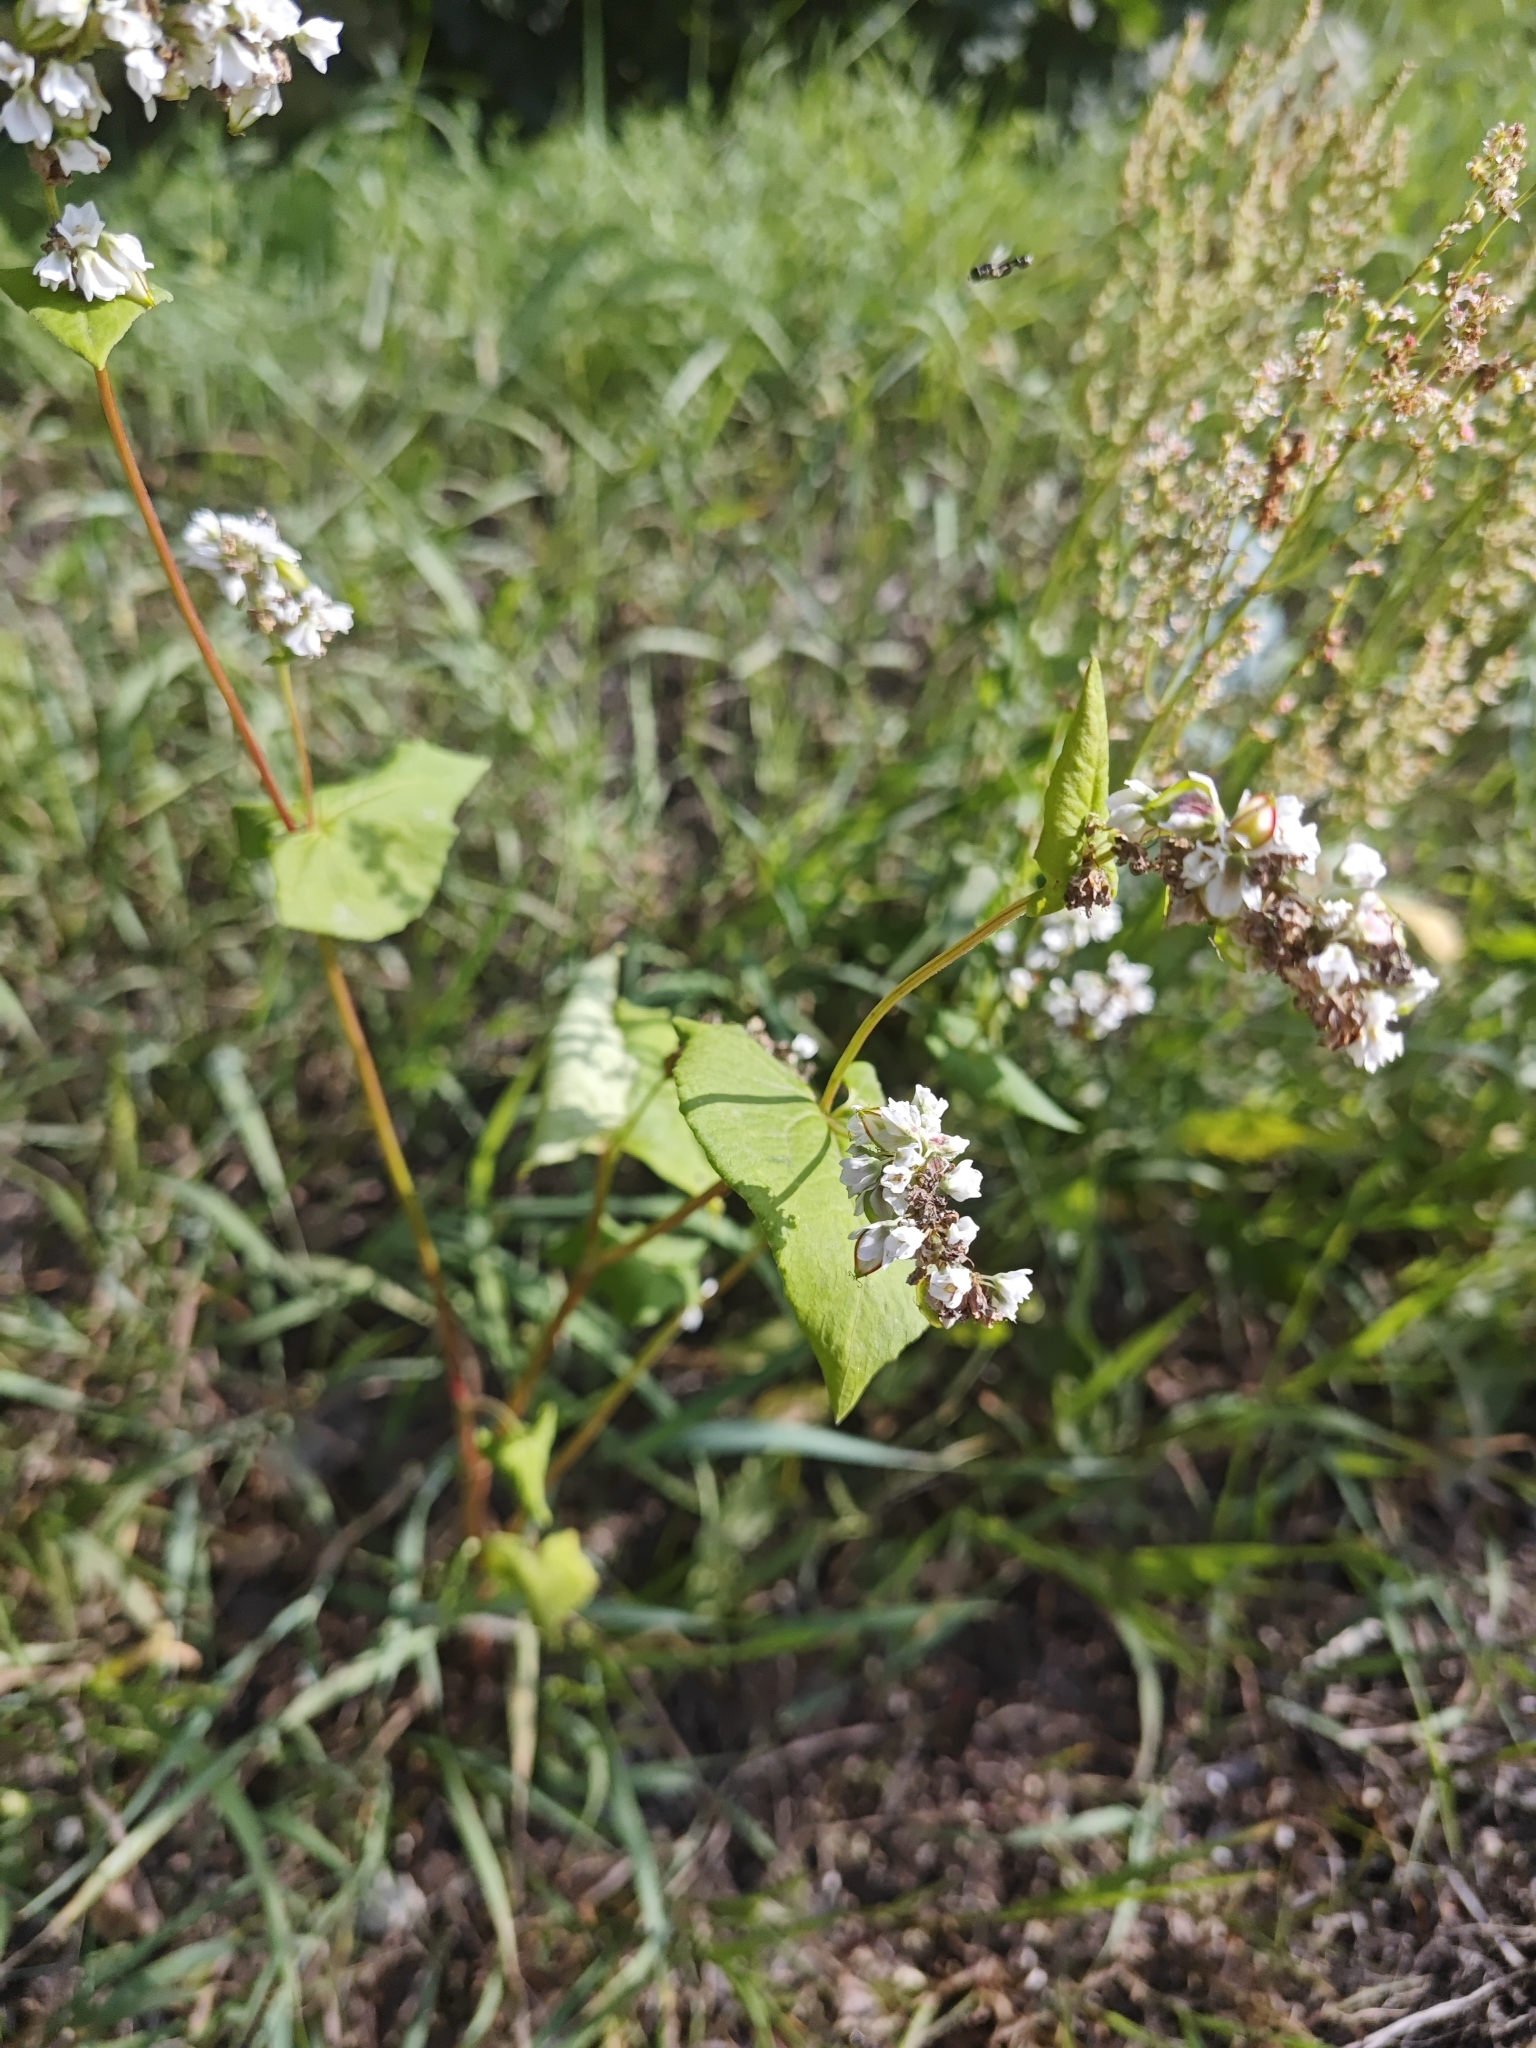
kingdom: Plantae
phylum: Tracheophyta
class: Magnoliopsida
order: Caryophyllales
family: Polygonaceae
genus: Fagopyrum
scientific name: Fagopyrum esculentum
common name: Buckwheat
